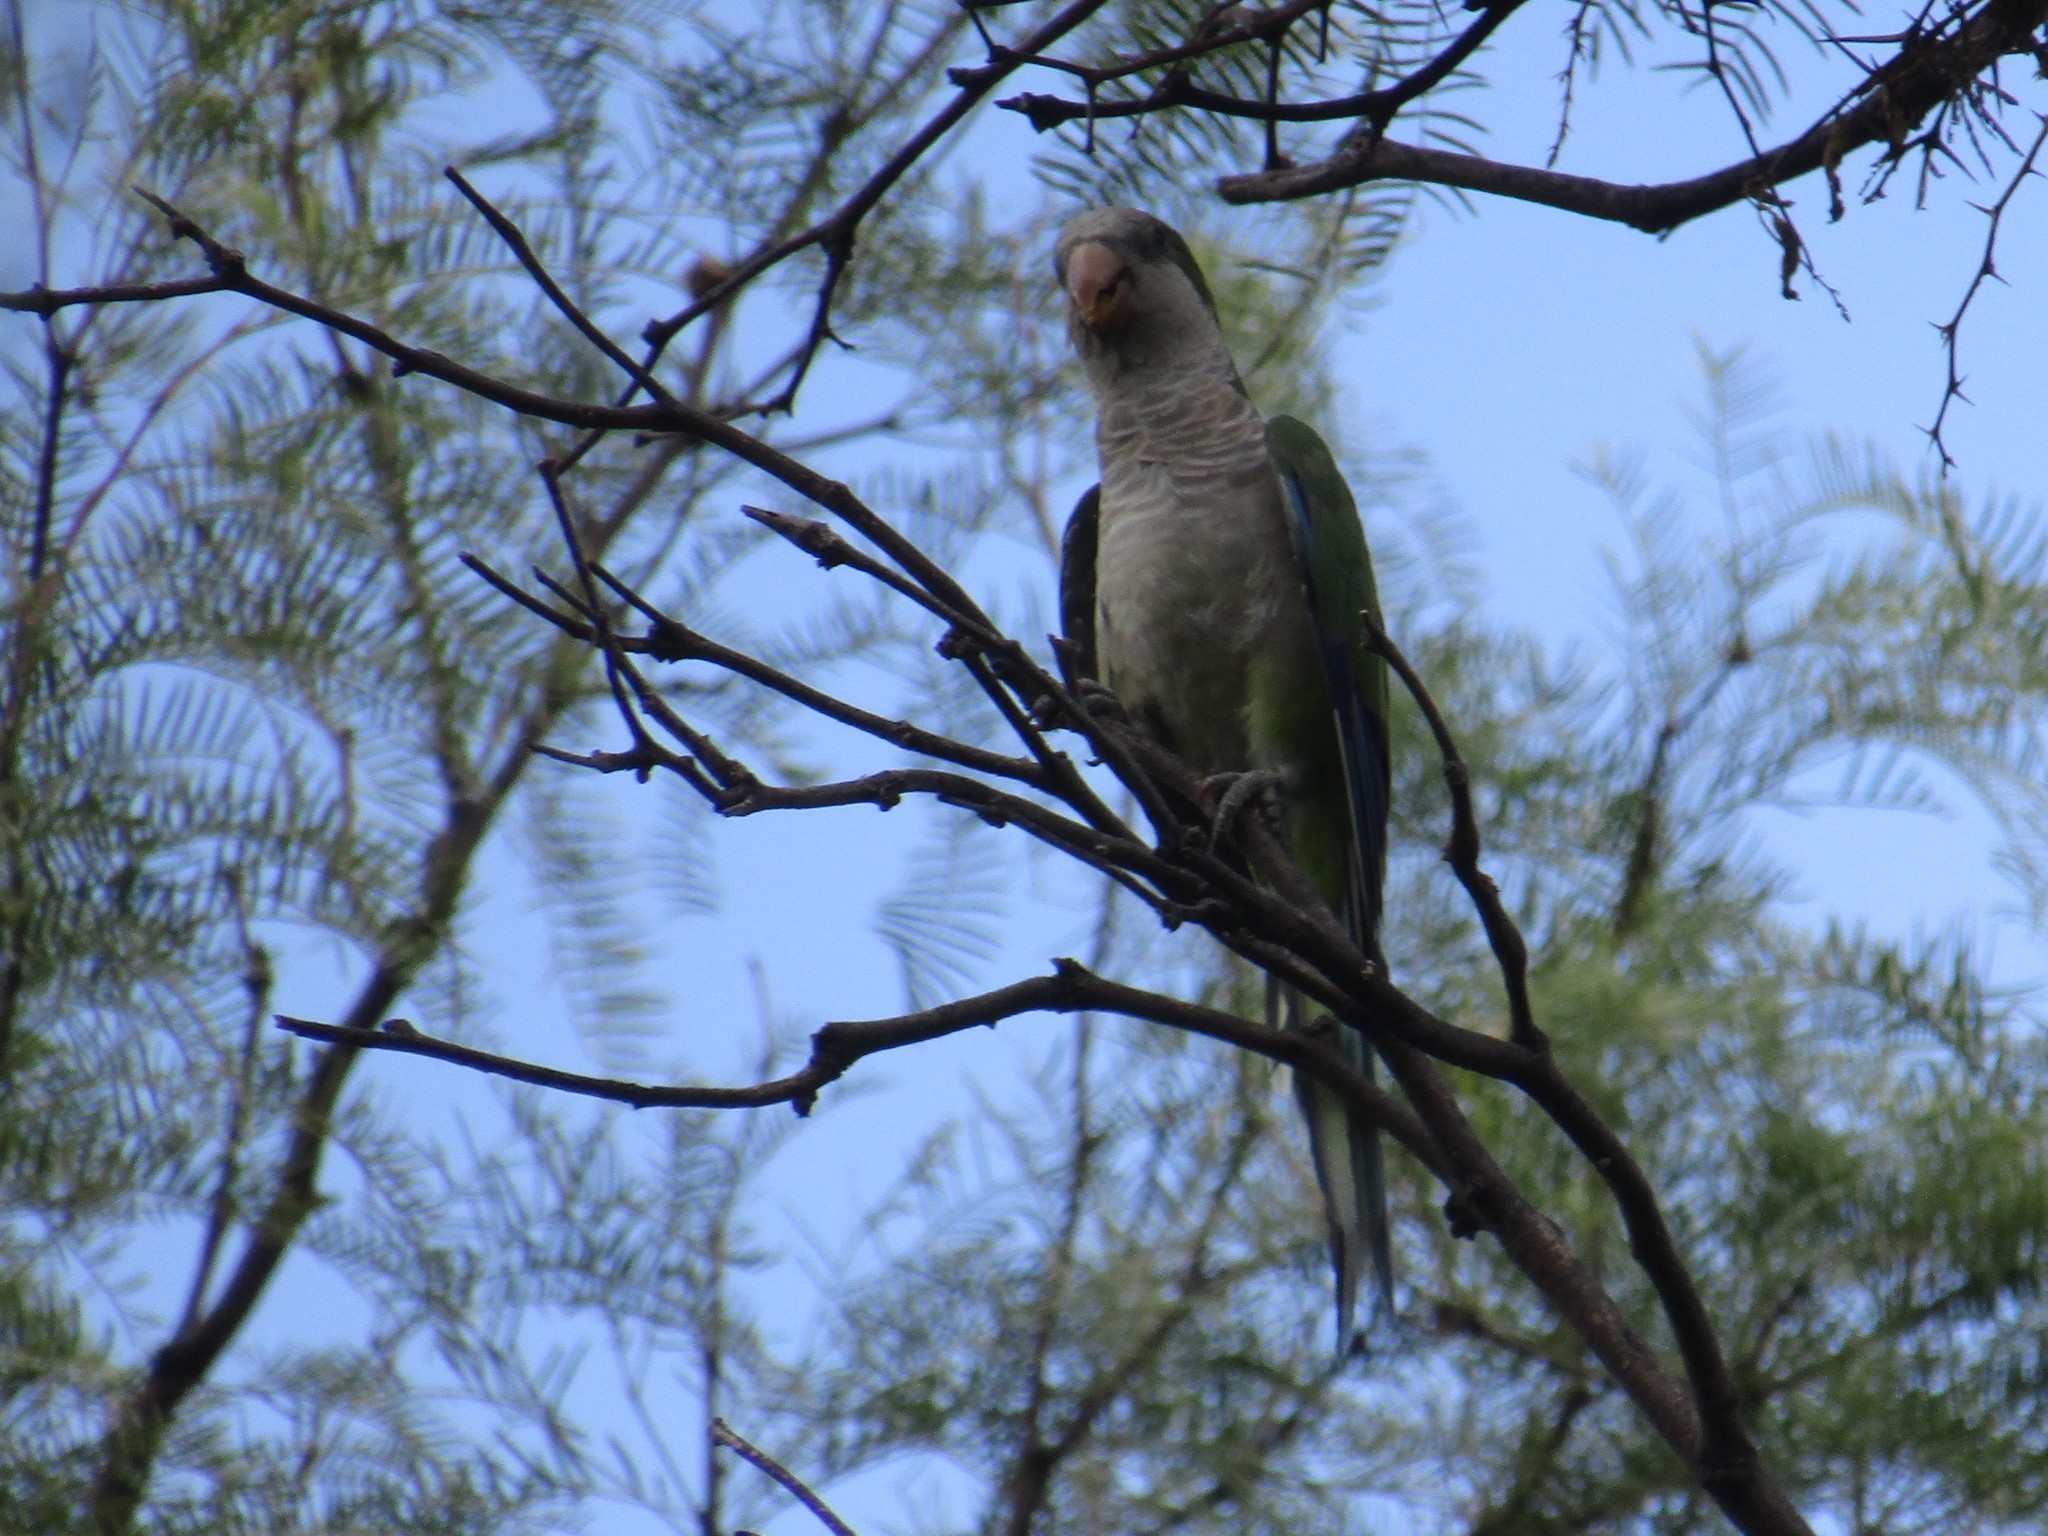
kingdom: Animalia
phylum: Chordata
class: Aves
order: Psittaciformes
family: Psittacidae
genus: Myiopsitta
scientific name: Myiopsitta monachus
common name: Monk parakeet
